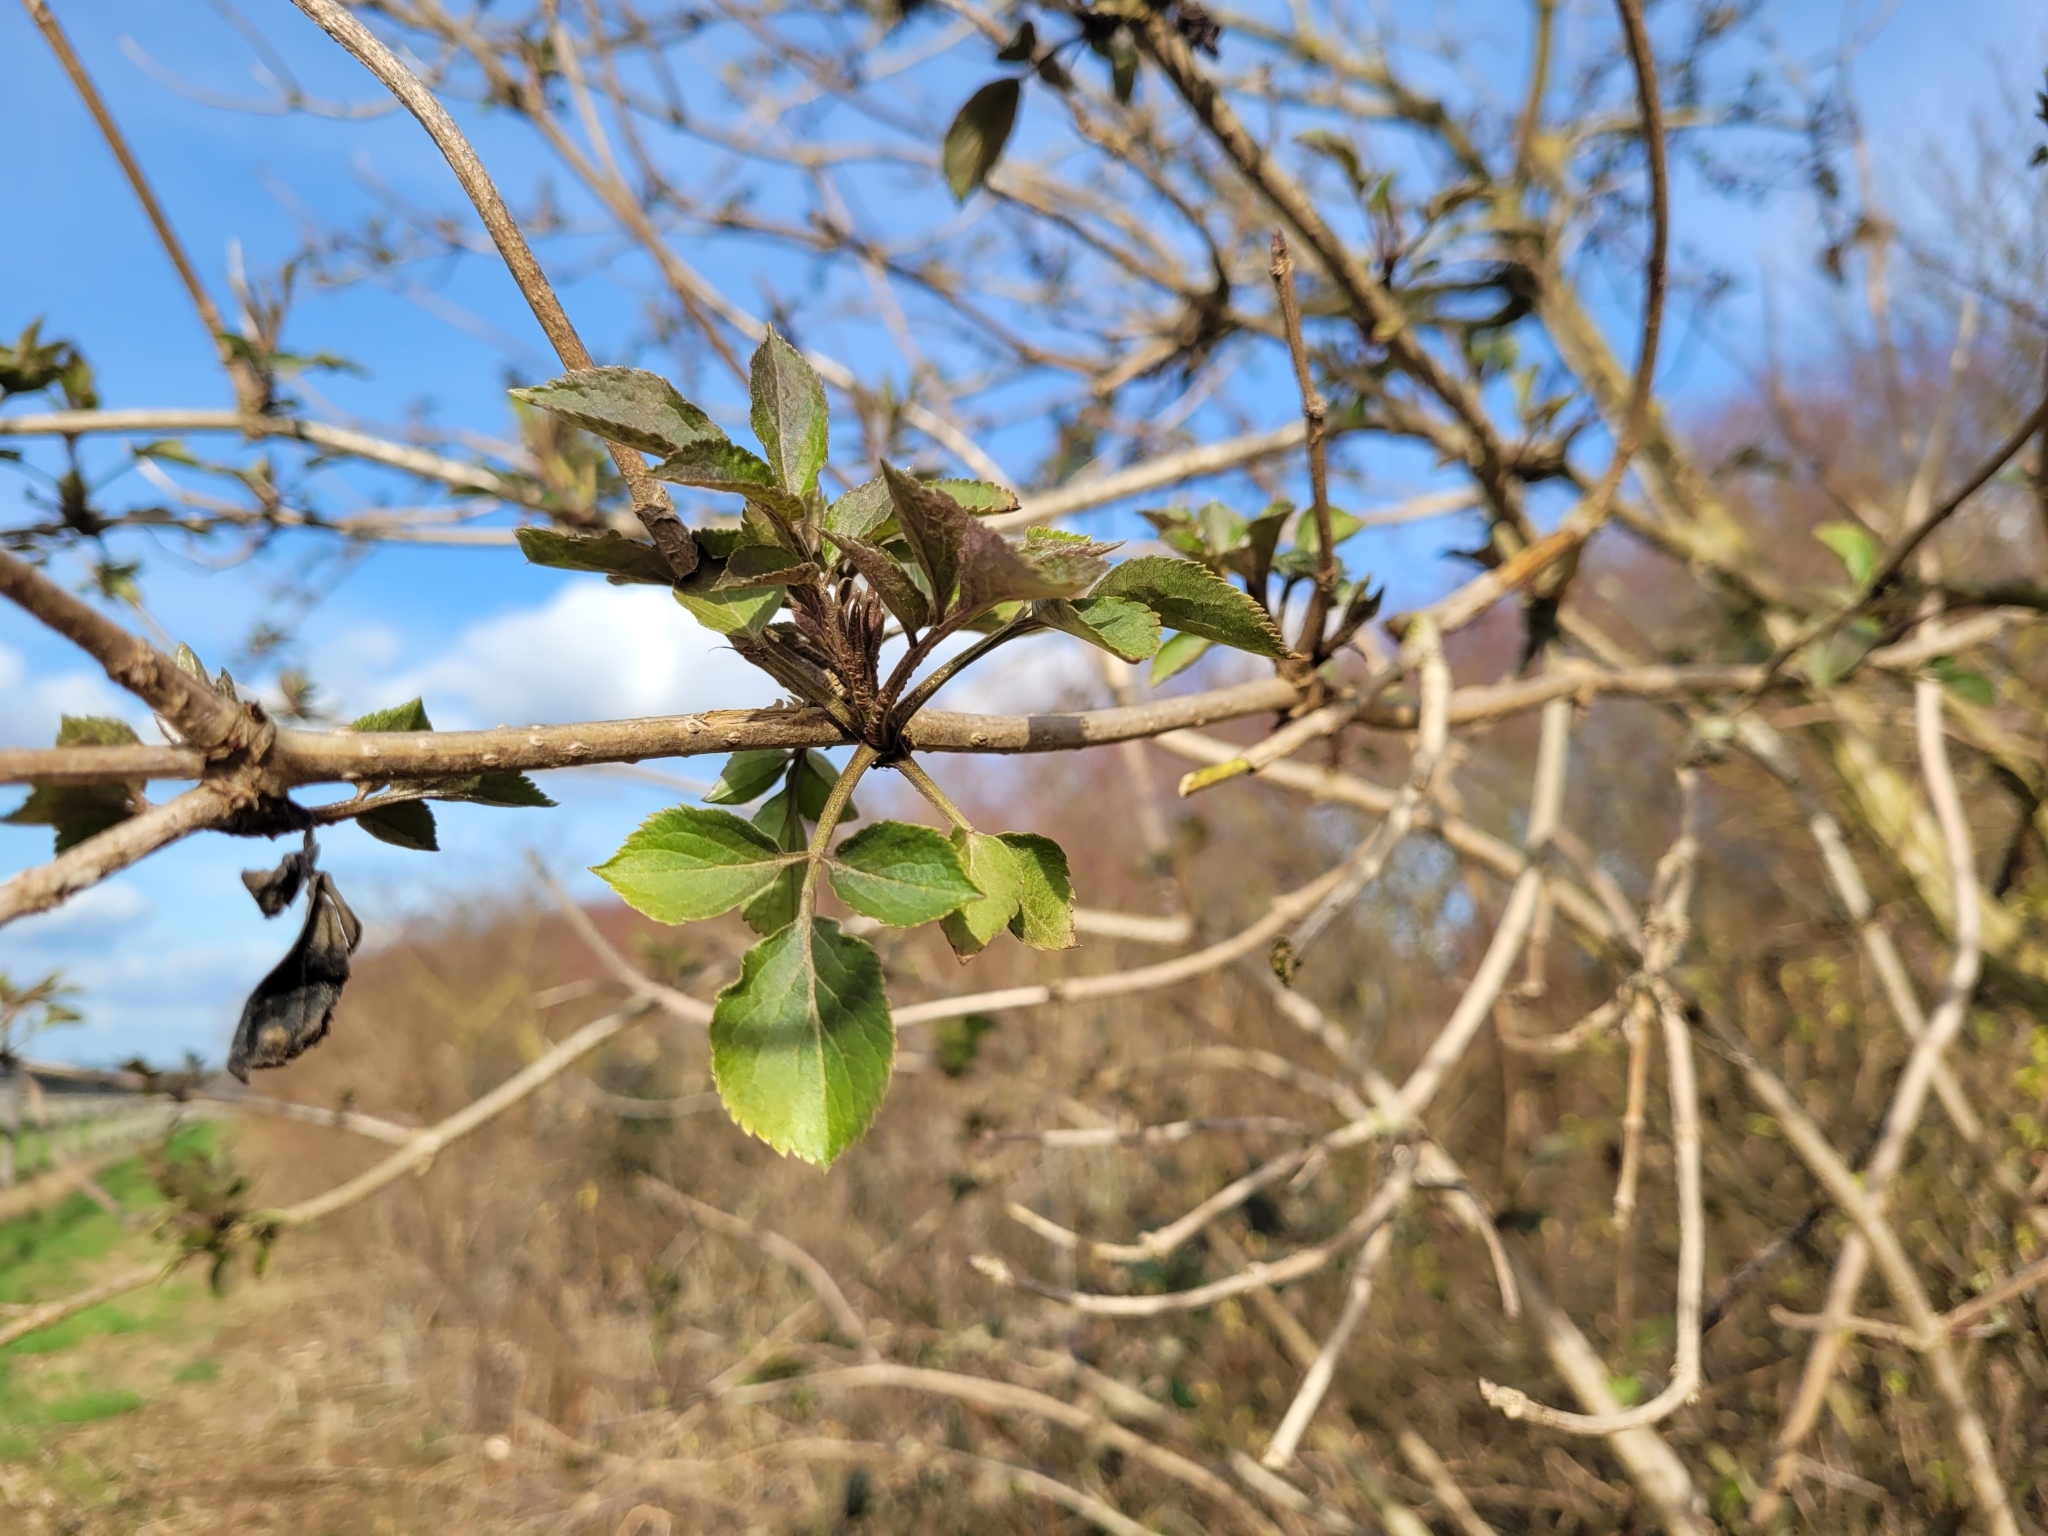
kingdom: Plantae
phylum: Tracheophyta
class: Magnoliopsida
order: Dipsacales
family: Viburnaceae
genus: Sambucus
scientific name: Sambucus nigra
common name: Elder
